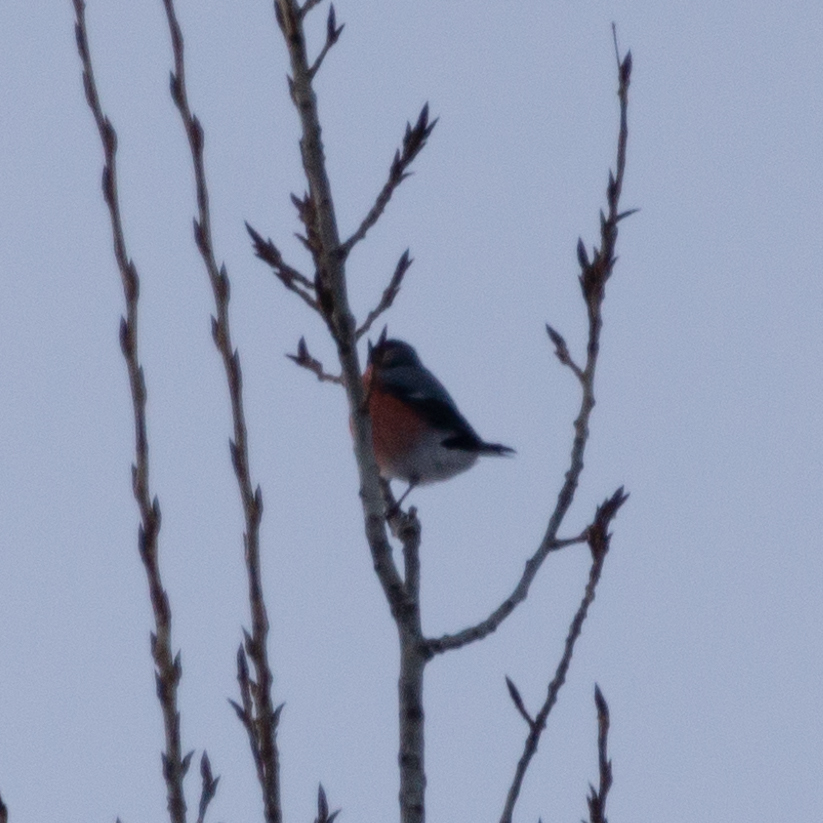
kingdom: Animalia
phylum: Chordata
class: Aves
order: Passeriformes
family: Fringillidae
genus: Pyrrhula
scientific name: Pyrrhula pyrrhula
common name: Eurasian bullfinch
